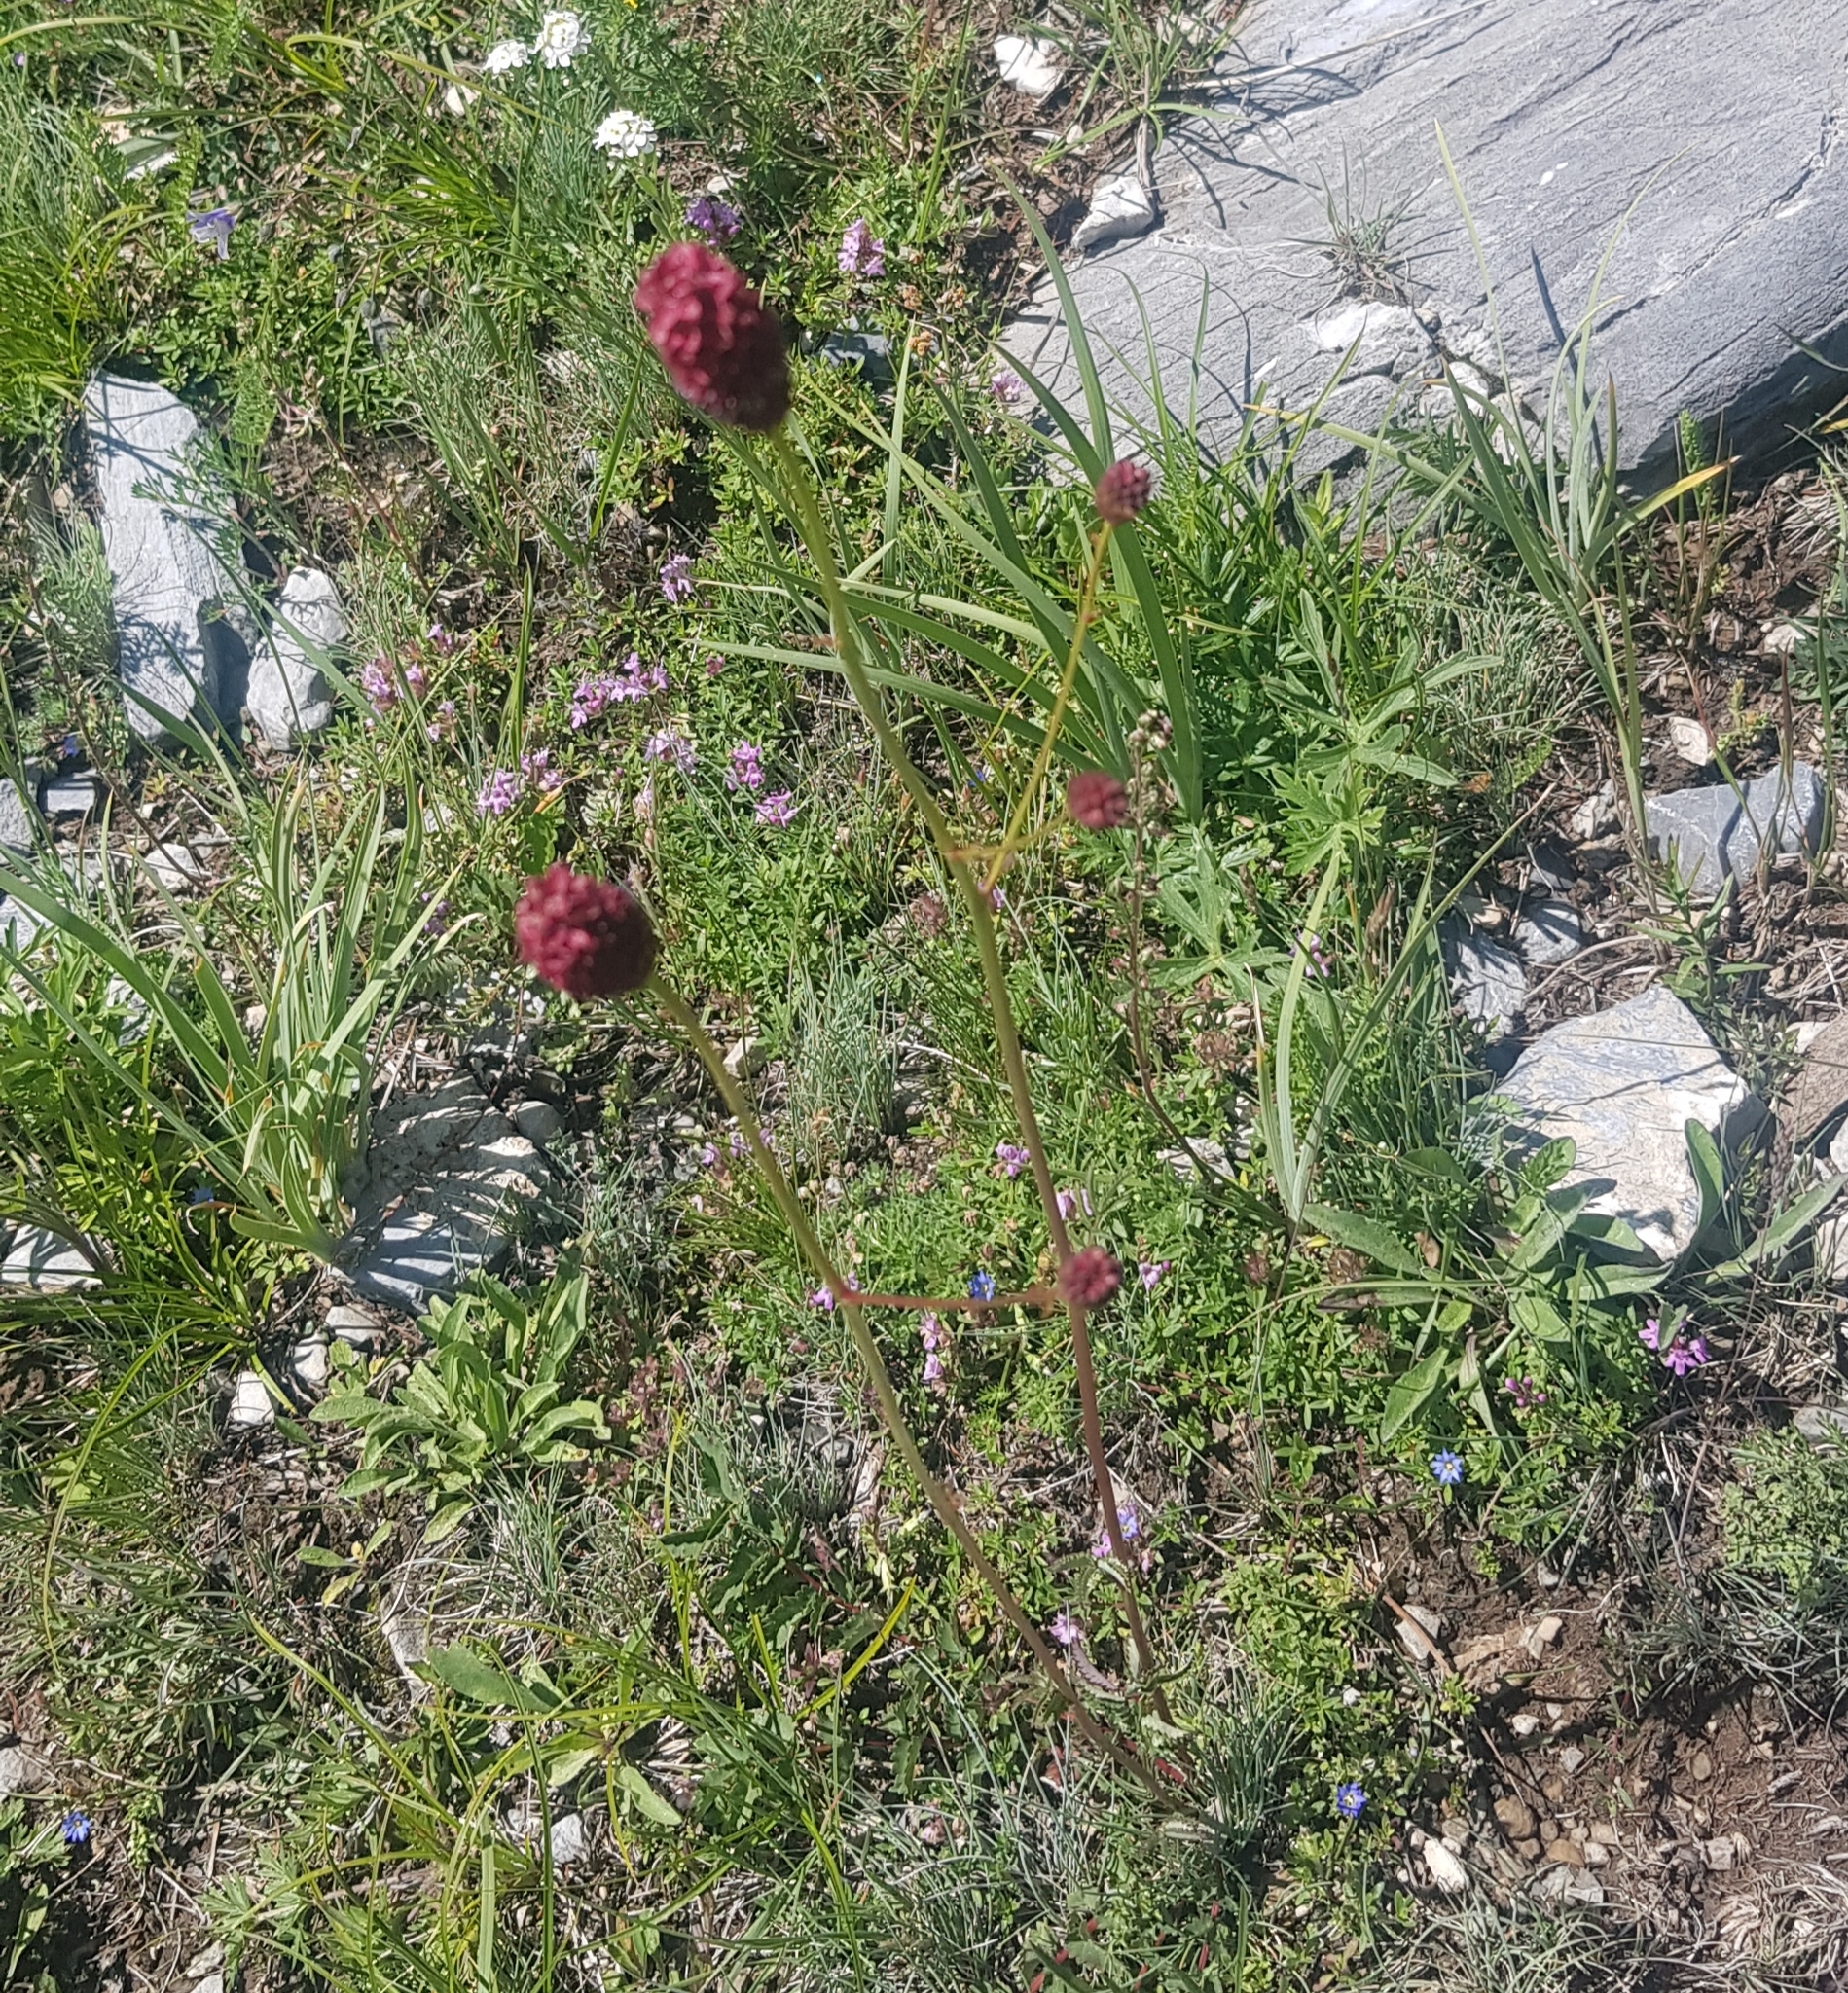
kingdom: Plantae
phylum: Tracheophyta
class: Magnoliopsida
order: Rosales
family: Rosaceae
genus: Sanguisorba
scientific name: Sanguisorba officinalis
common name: Great burnet
